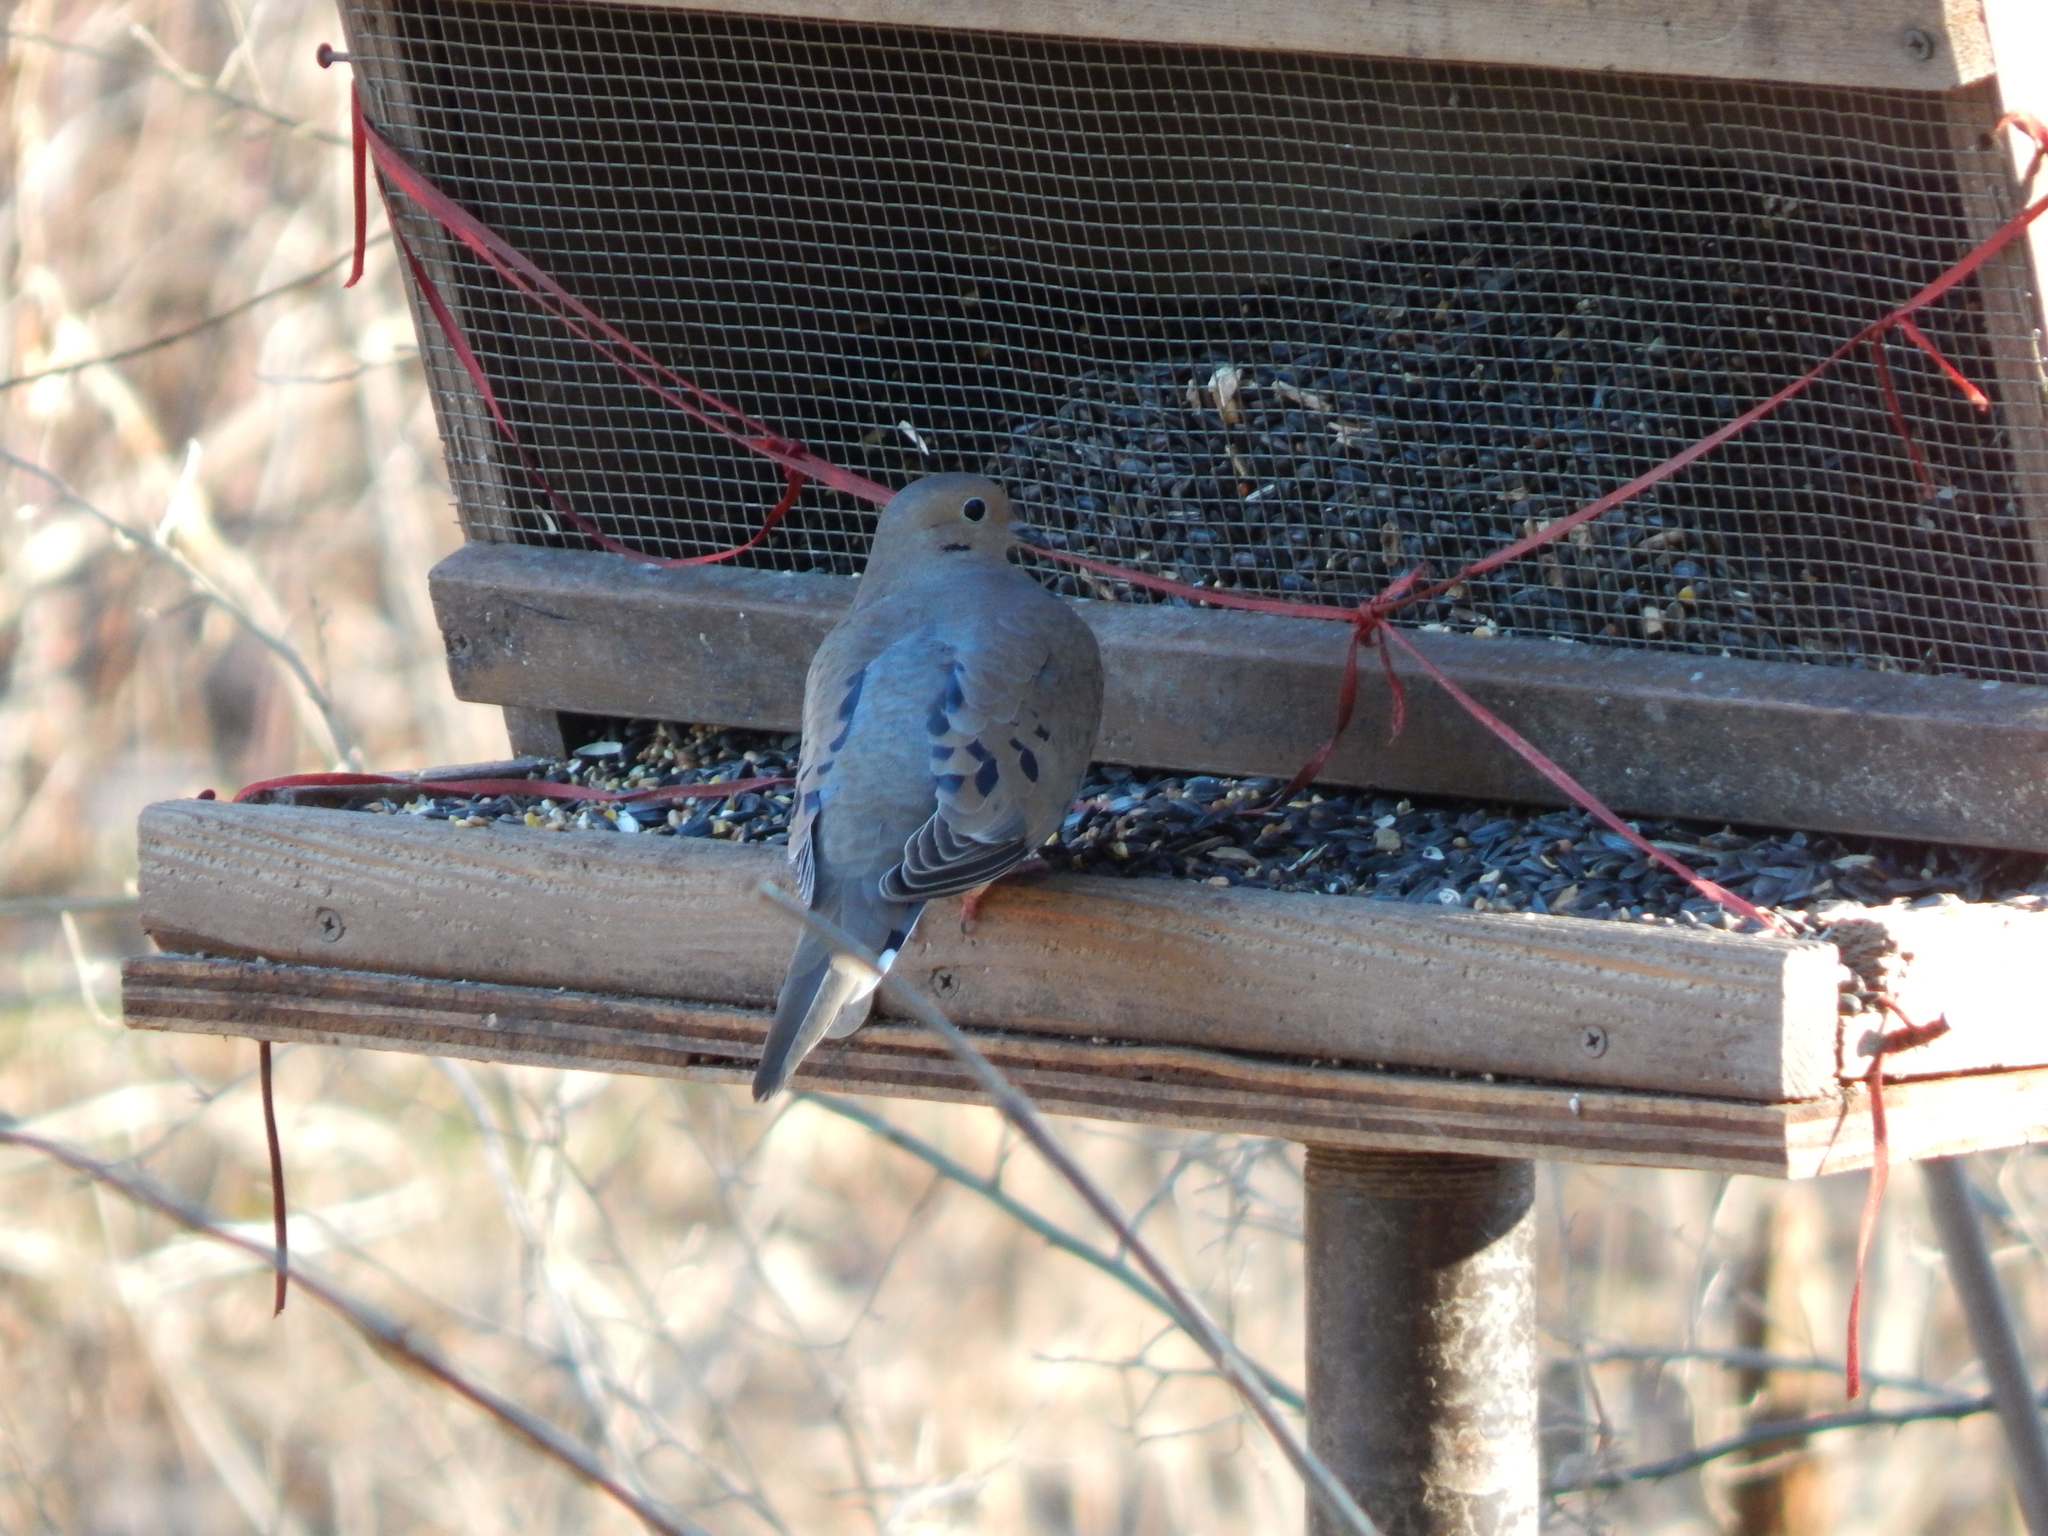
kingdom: Animalia
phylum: Chordata
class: Aves
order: Columbiformes
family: Columbidae
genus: Zenaida
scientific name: Zenaida macroura
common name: Mourning dove
